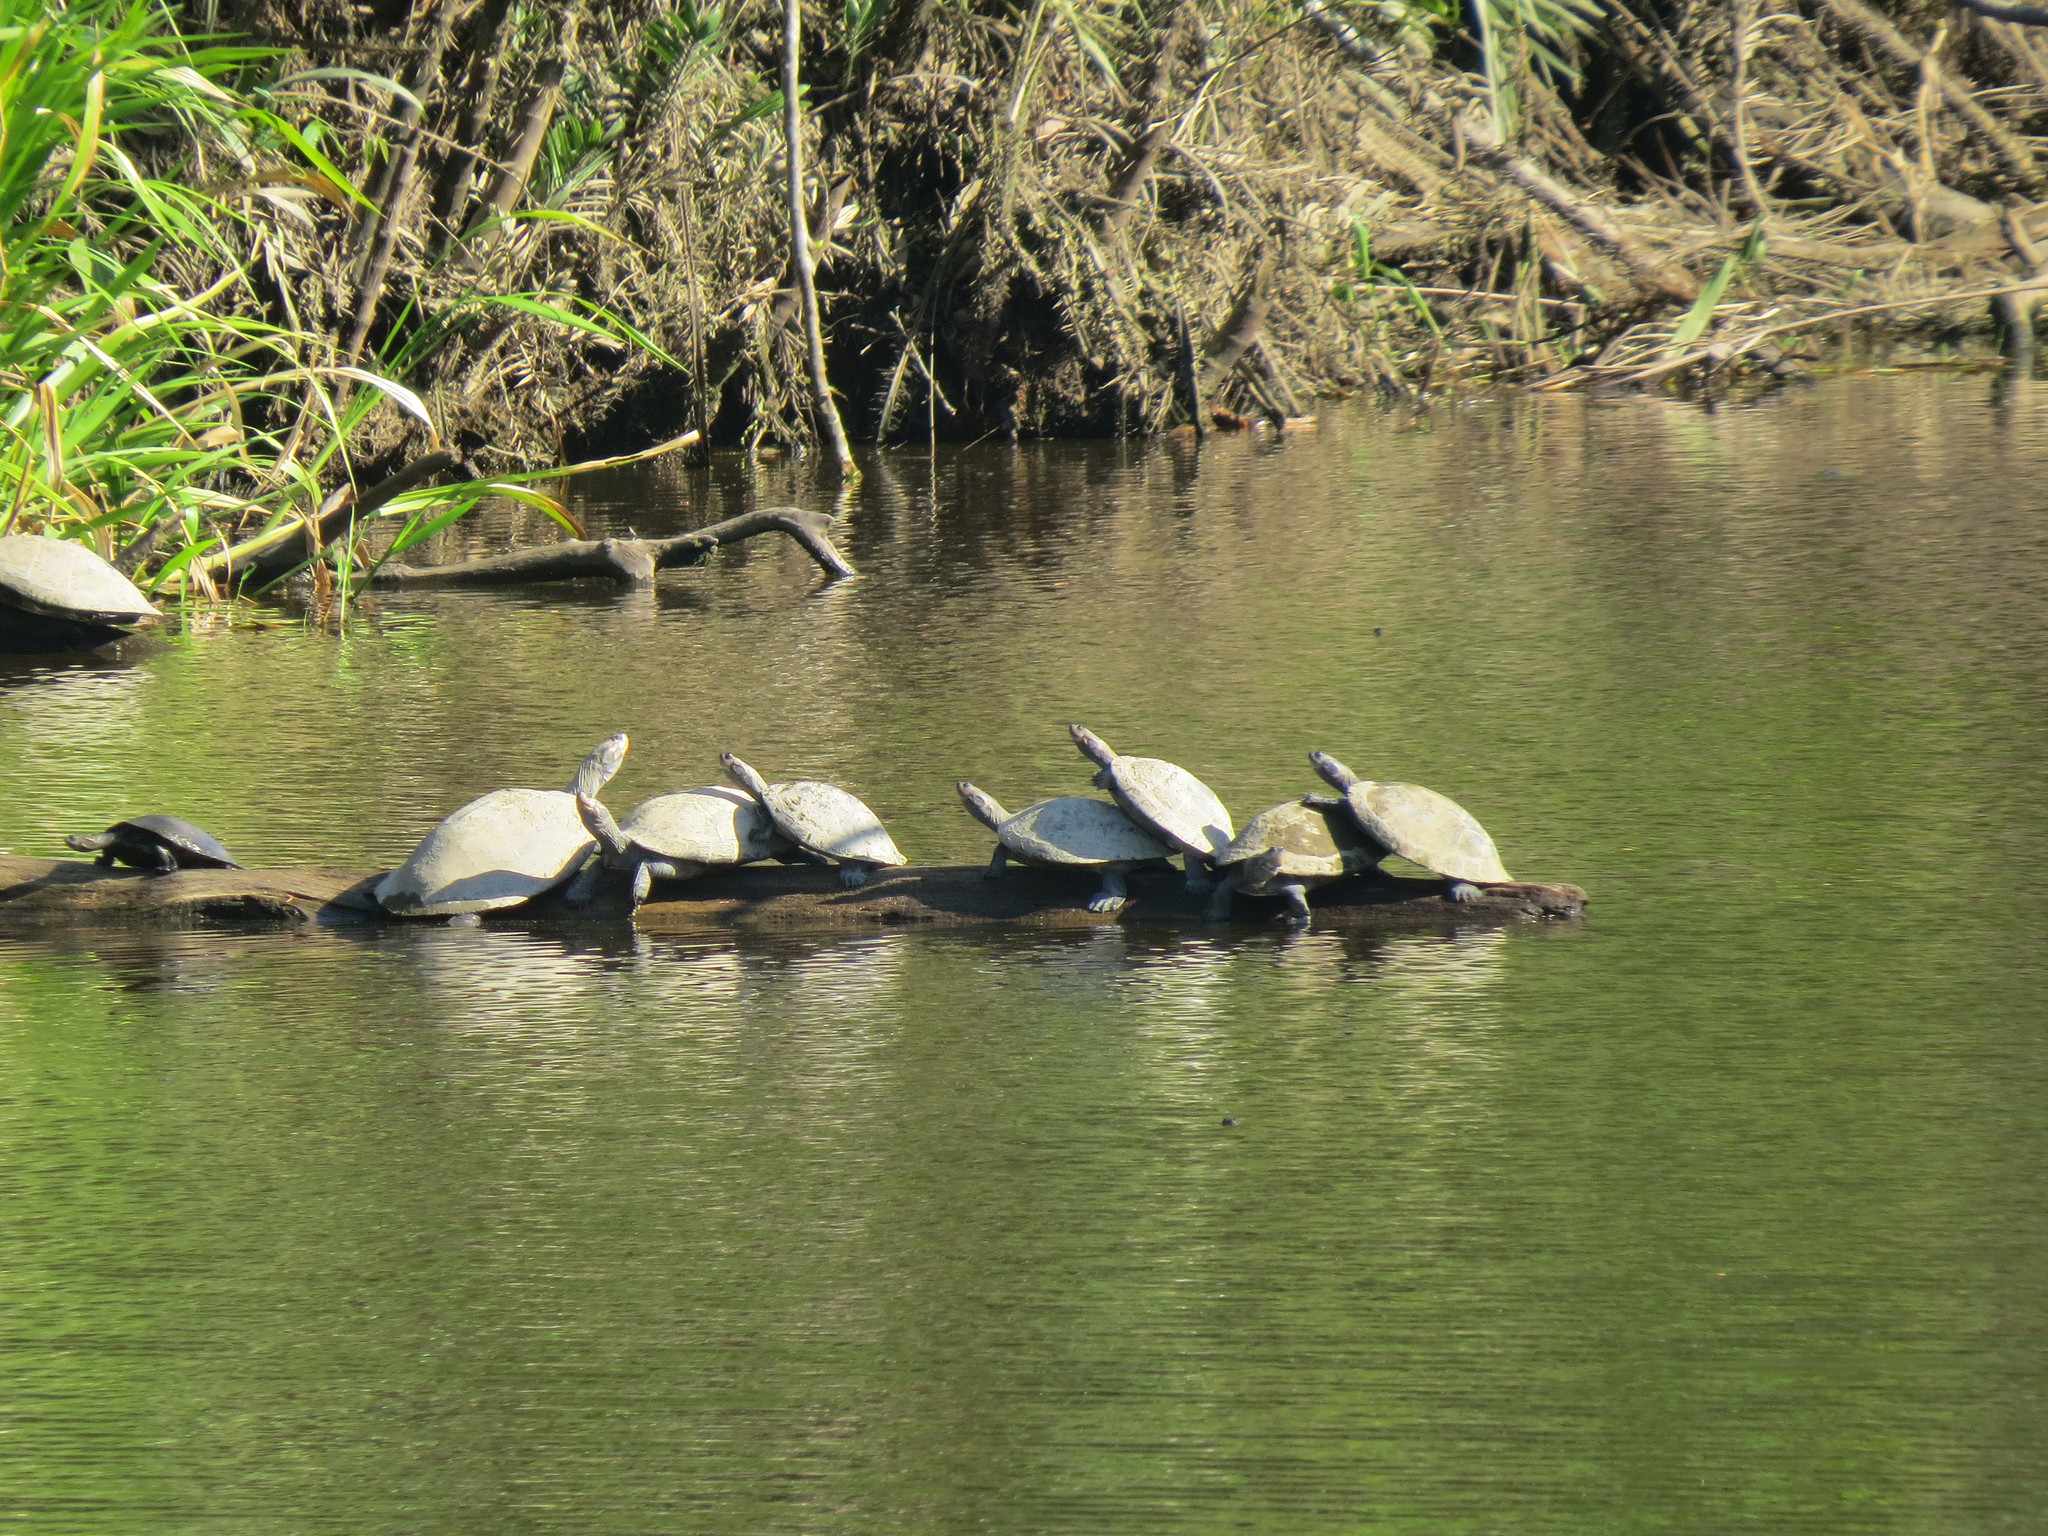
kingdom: Animalia
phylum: Chordata
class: Testudines
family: Podocnemididae
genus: Podocnemis
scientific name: Podocnemis unifilis
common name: Yellow-spotted amazon river turtle
